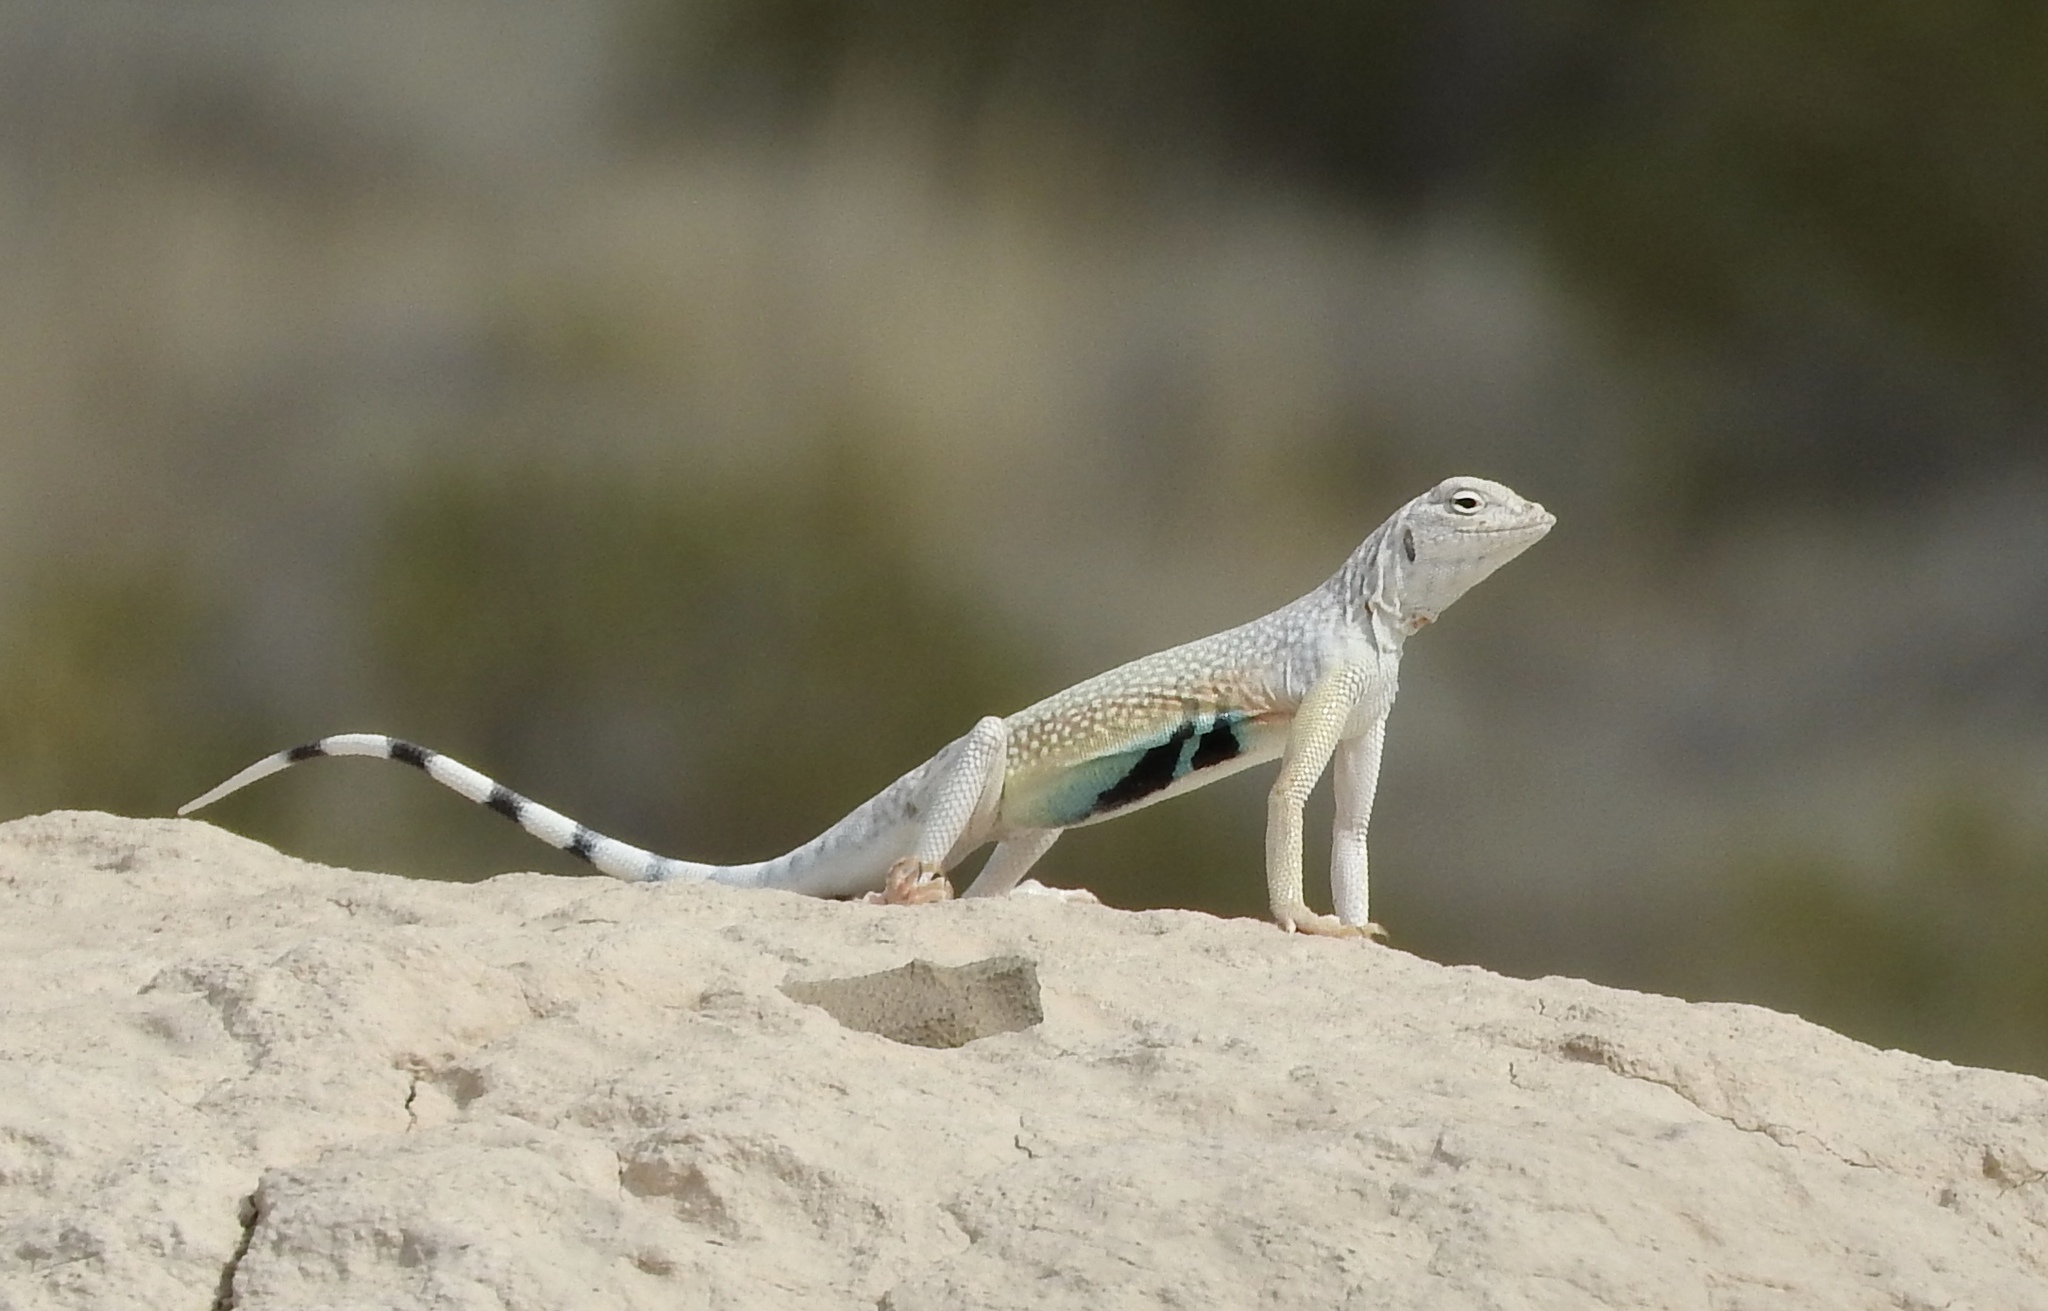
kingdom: Animalia
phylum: Chordata
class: Squamata
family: Phrynosomatidae
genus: Callisaurus
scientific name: Callisaurus draconoides
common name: Zebra-tailed lizard
